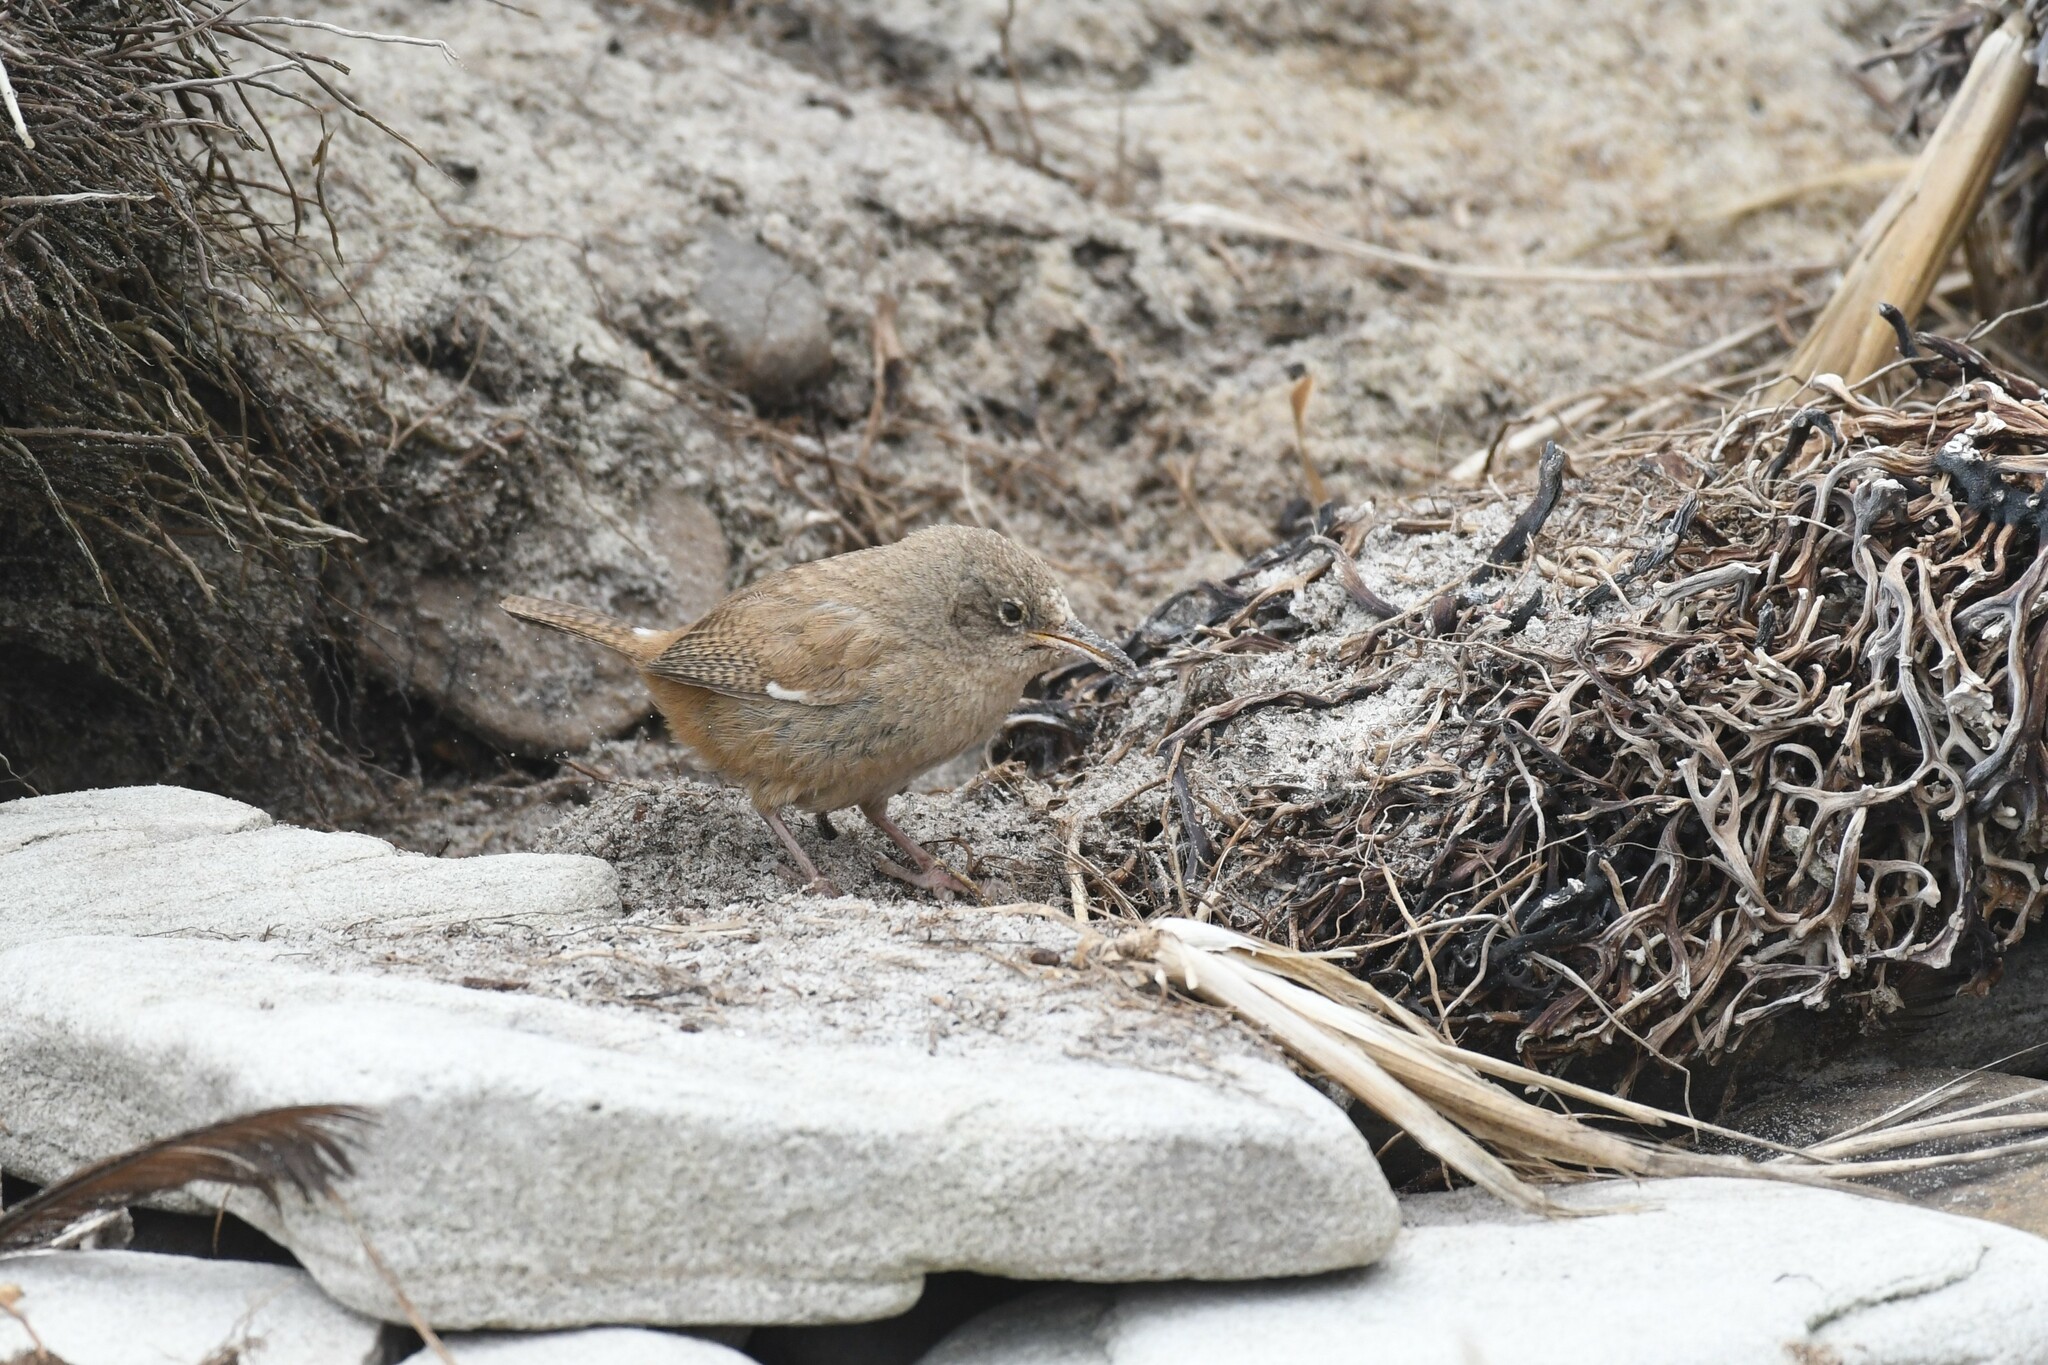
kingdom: Animalia
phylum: Chordata
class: Aves
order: Passeriformes
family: Troglodytidae
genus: Troglodytes
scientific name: Troglodytes cobbi
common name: Cobb's wren
